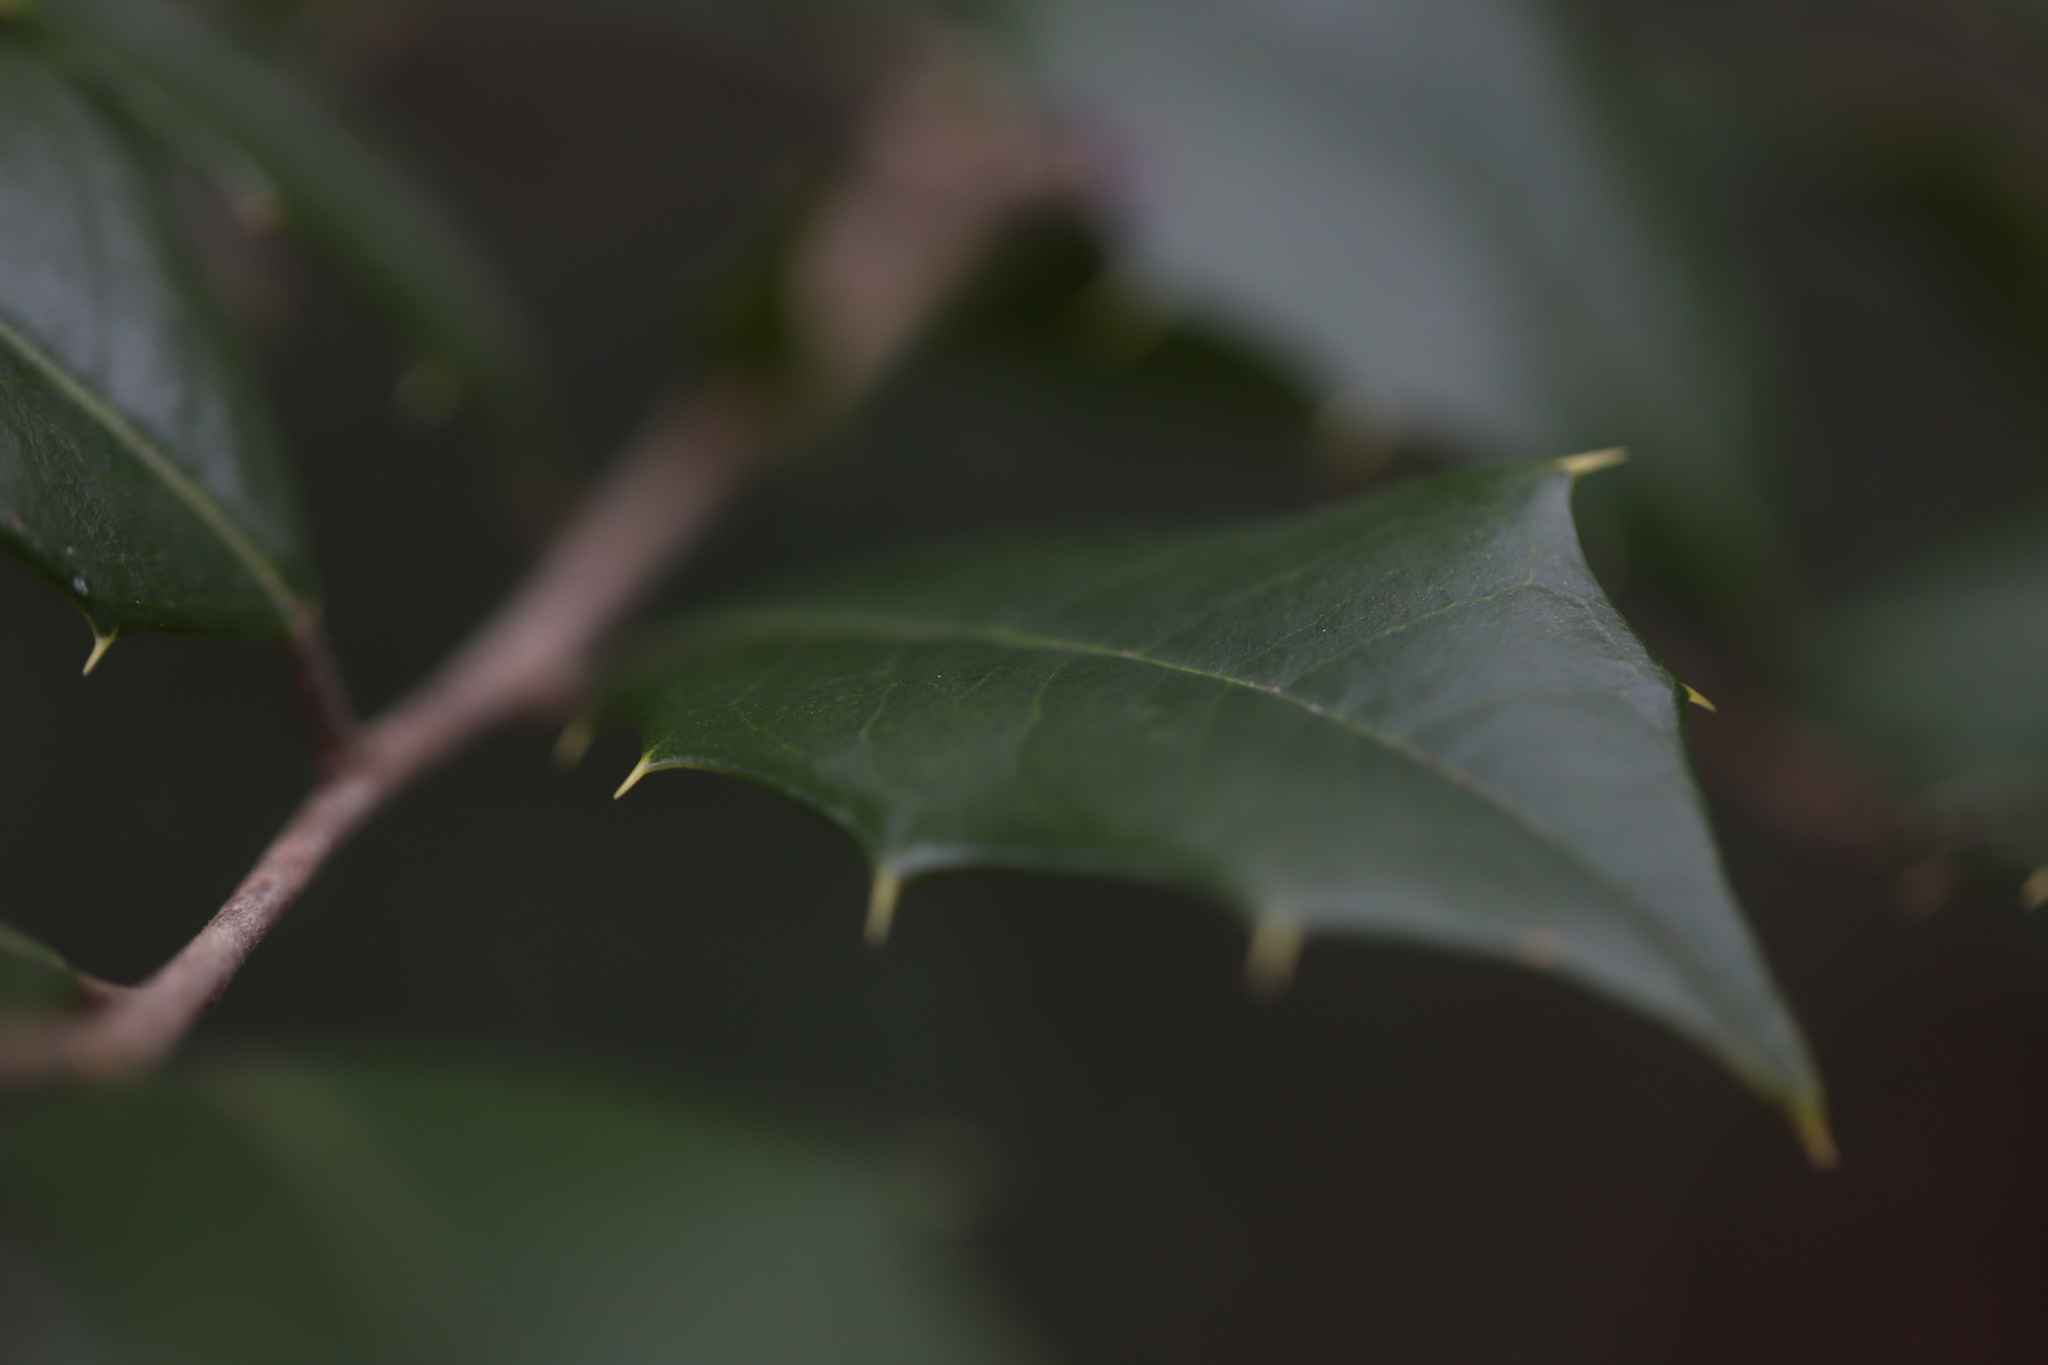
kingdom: Plantae
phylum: Tracheophyta
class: Magnoliopsida
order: Aquifoliales
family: Aquifoliaceae
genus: Ilex
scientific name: Ilex opaca
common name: American holly
